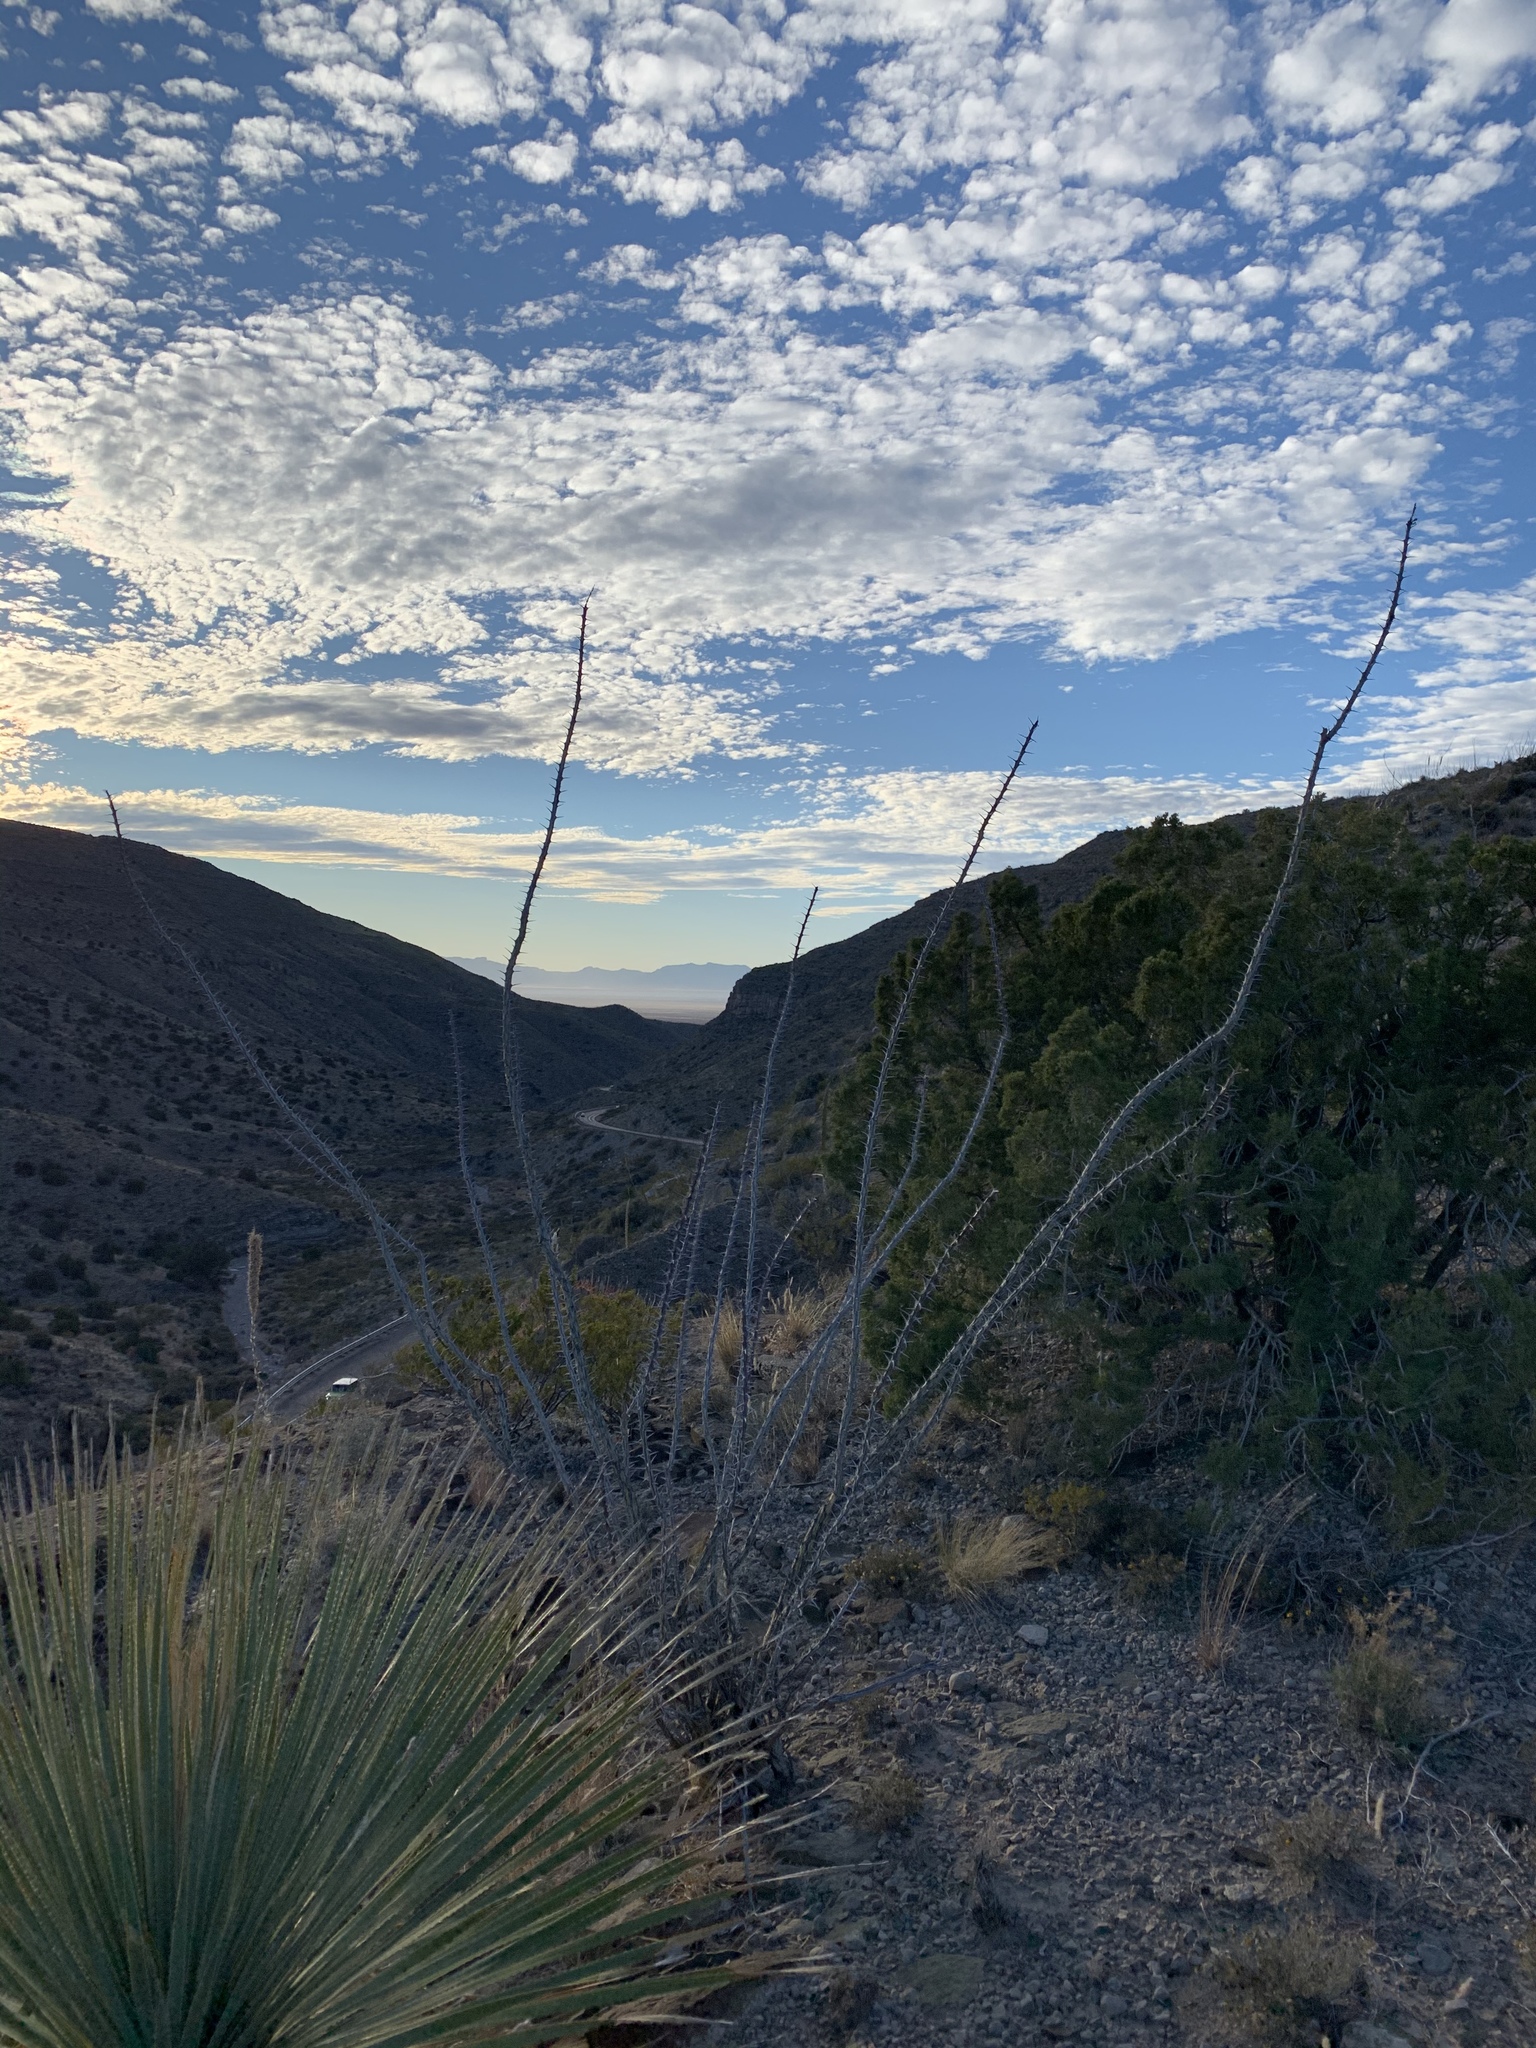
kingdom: Plantae
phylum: Tracheophyta
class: Magnoliopsida
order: Ericales
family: Fouquieriaceae
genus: Fouquieria
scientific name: Fouquieria splendens
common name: Vine-cactus
